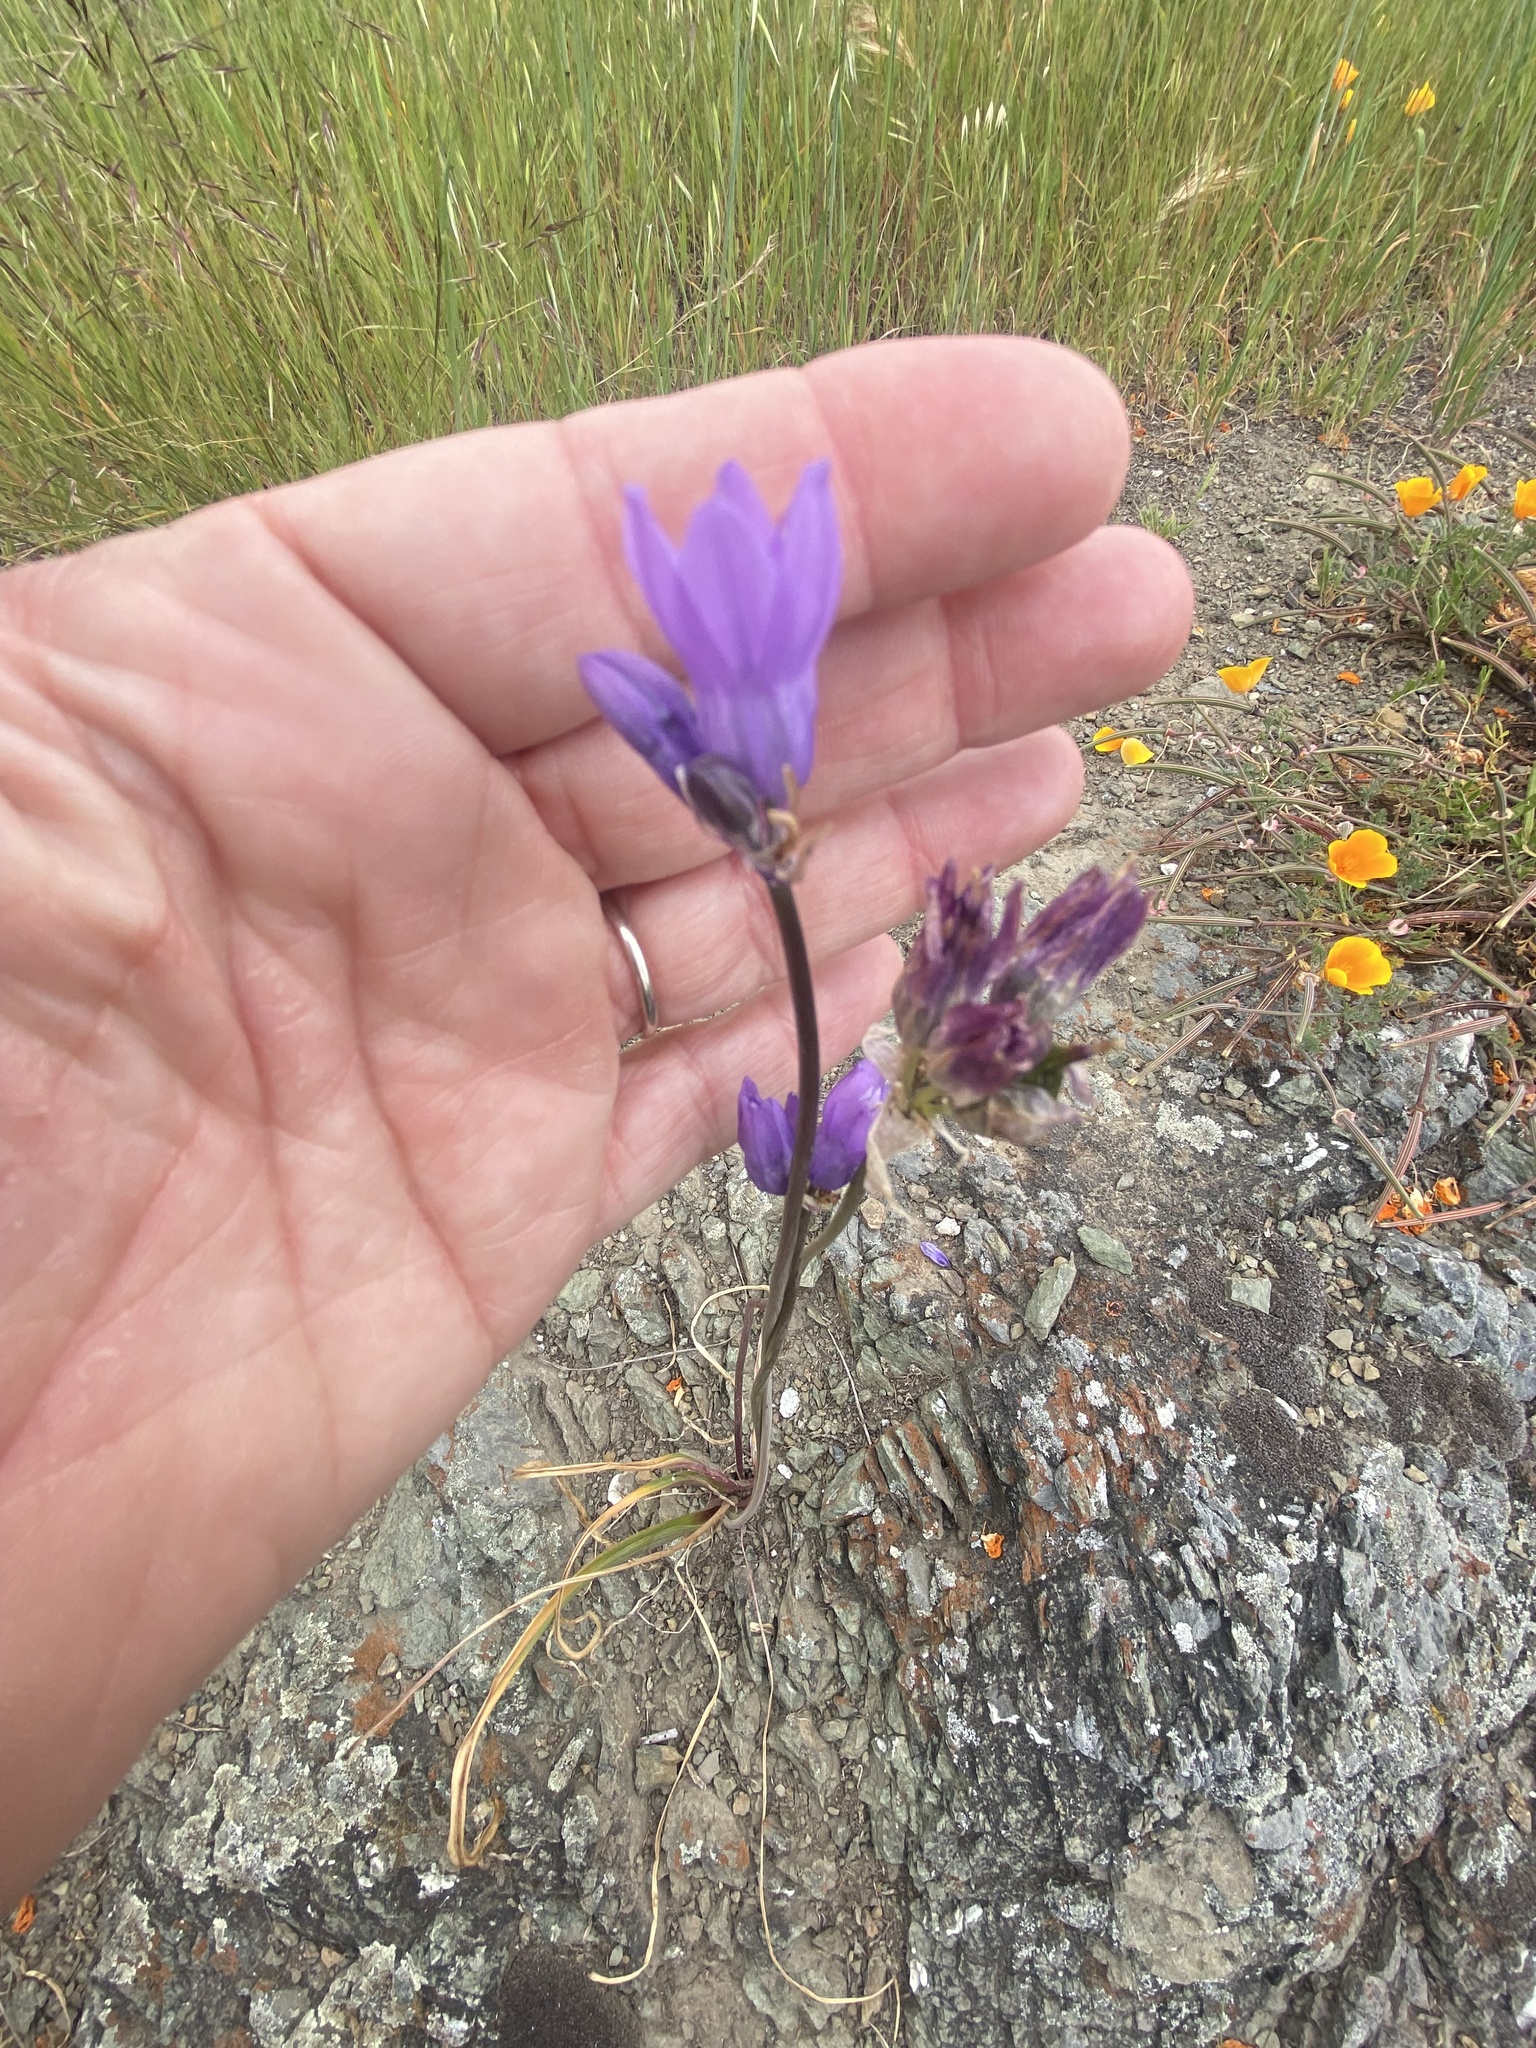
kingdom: Plantae
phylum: Tracheophyta
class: Liliopsida
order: Asparagales
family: Asparagaceae
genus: Dipterostemon
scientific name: Dipterostemon capitatus
